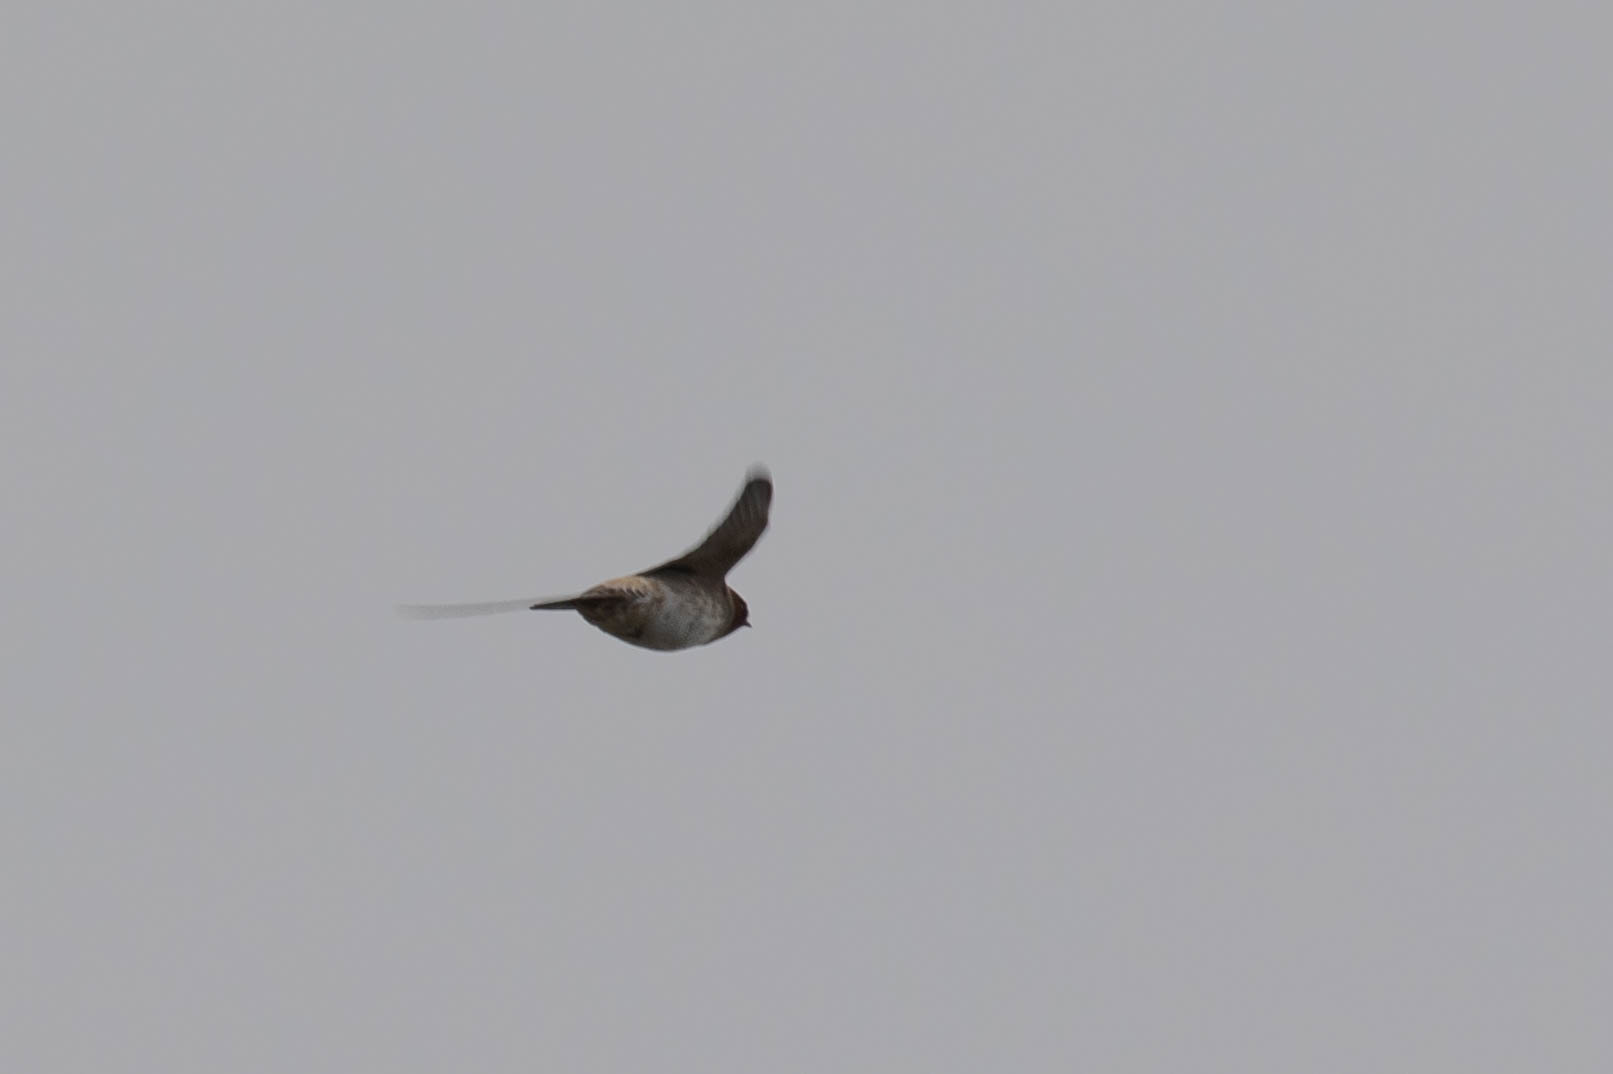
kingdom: Animalia
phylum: Chordata
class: Aves
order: Passeriformes
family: Hirundinidae
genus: Petrochelidon
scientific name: Petrochelidon pyrrhonota
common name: American cliff swallow
